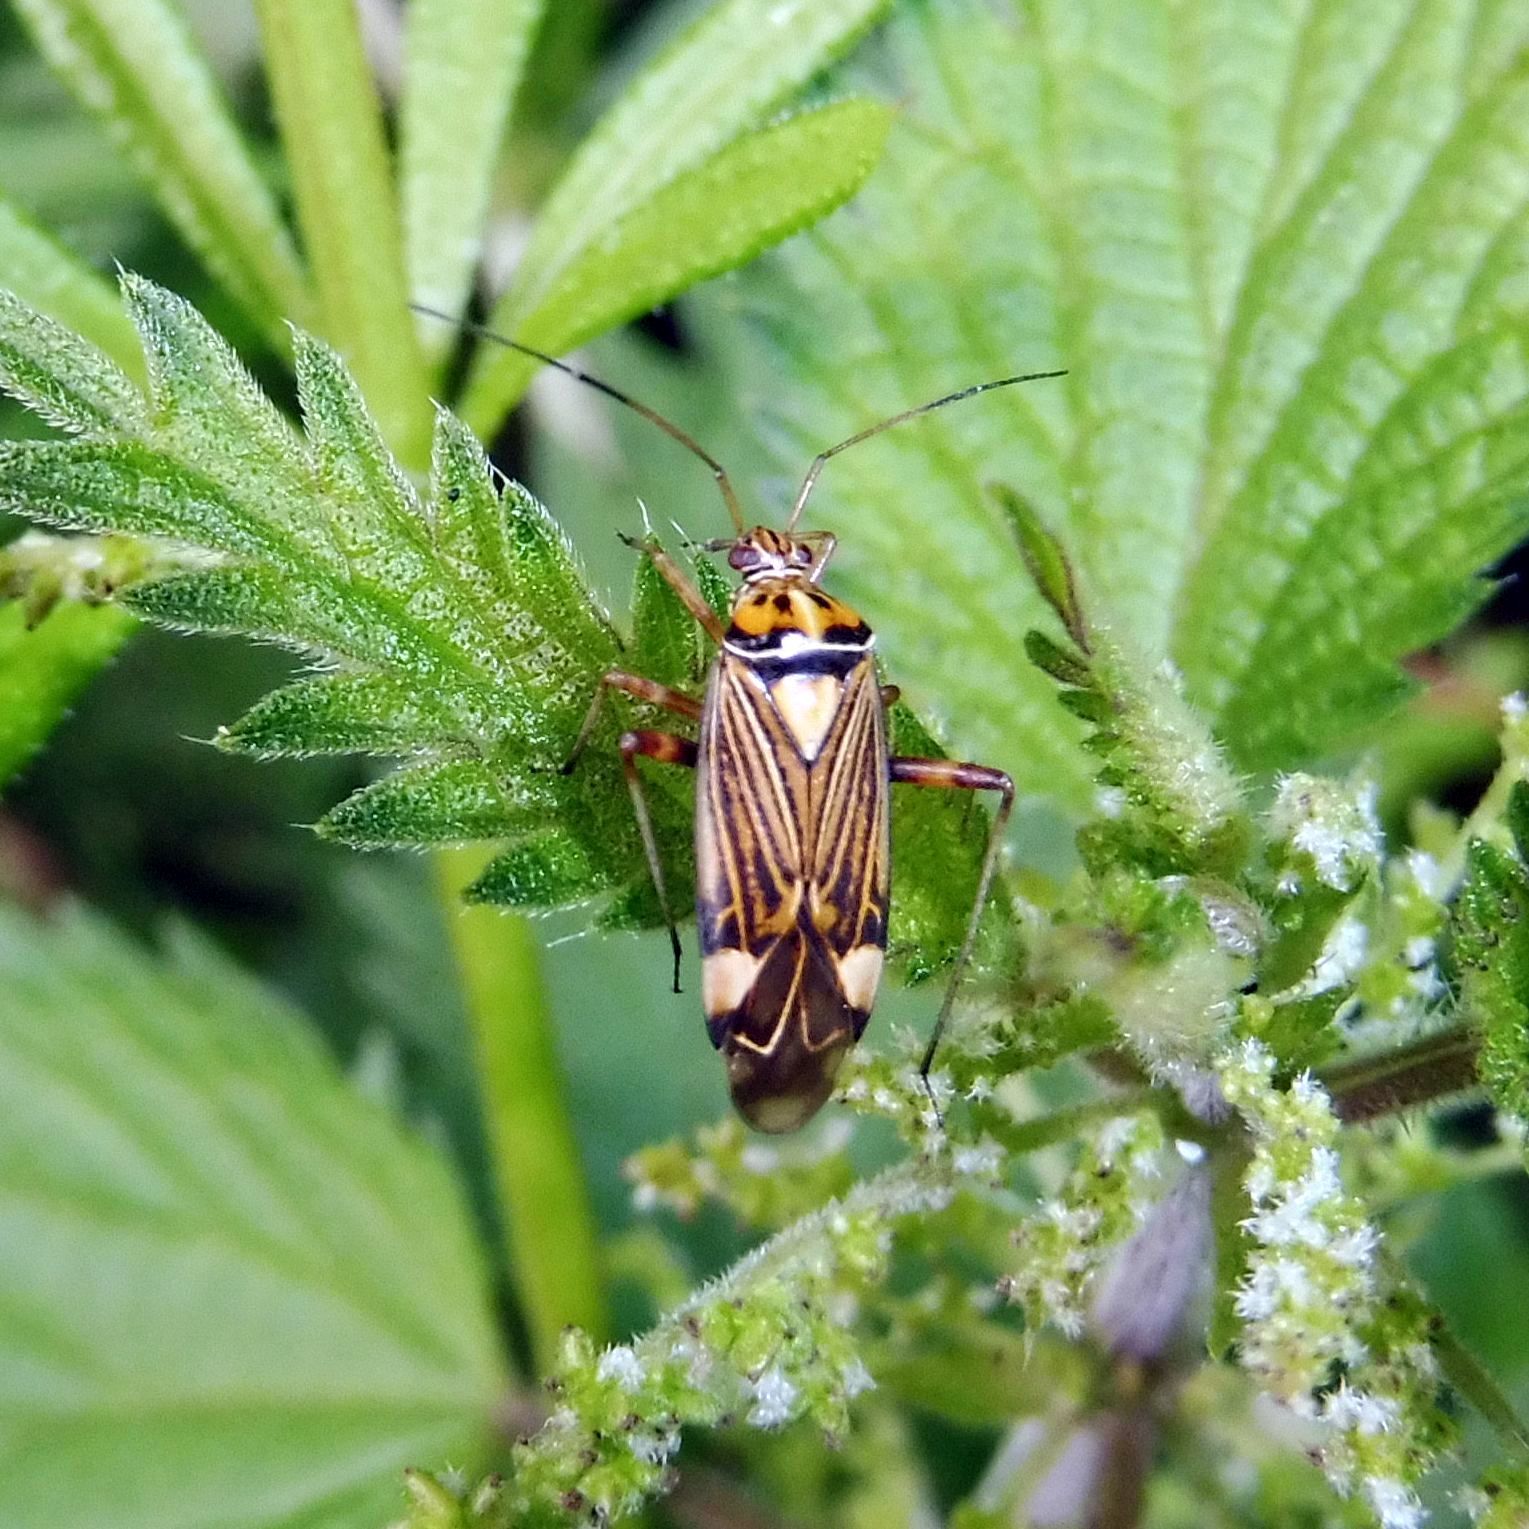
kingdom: Animalia
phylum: Arthropoda
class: Insecta
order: Hemiptera
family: Miridae
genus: Rhabdomiris
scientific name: Rhabdomiris striatellus
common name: Plant bug
